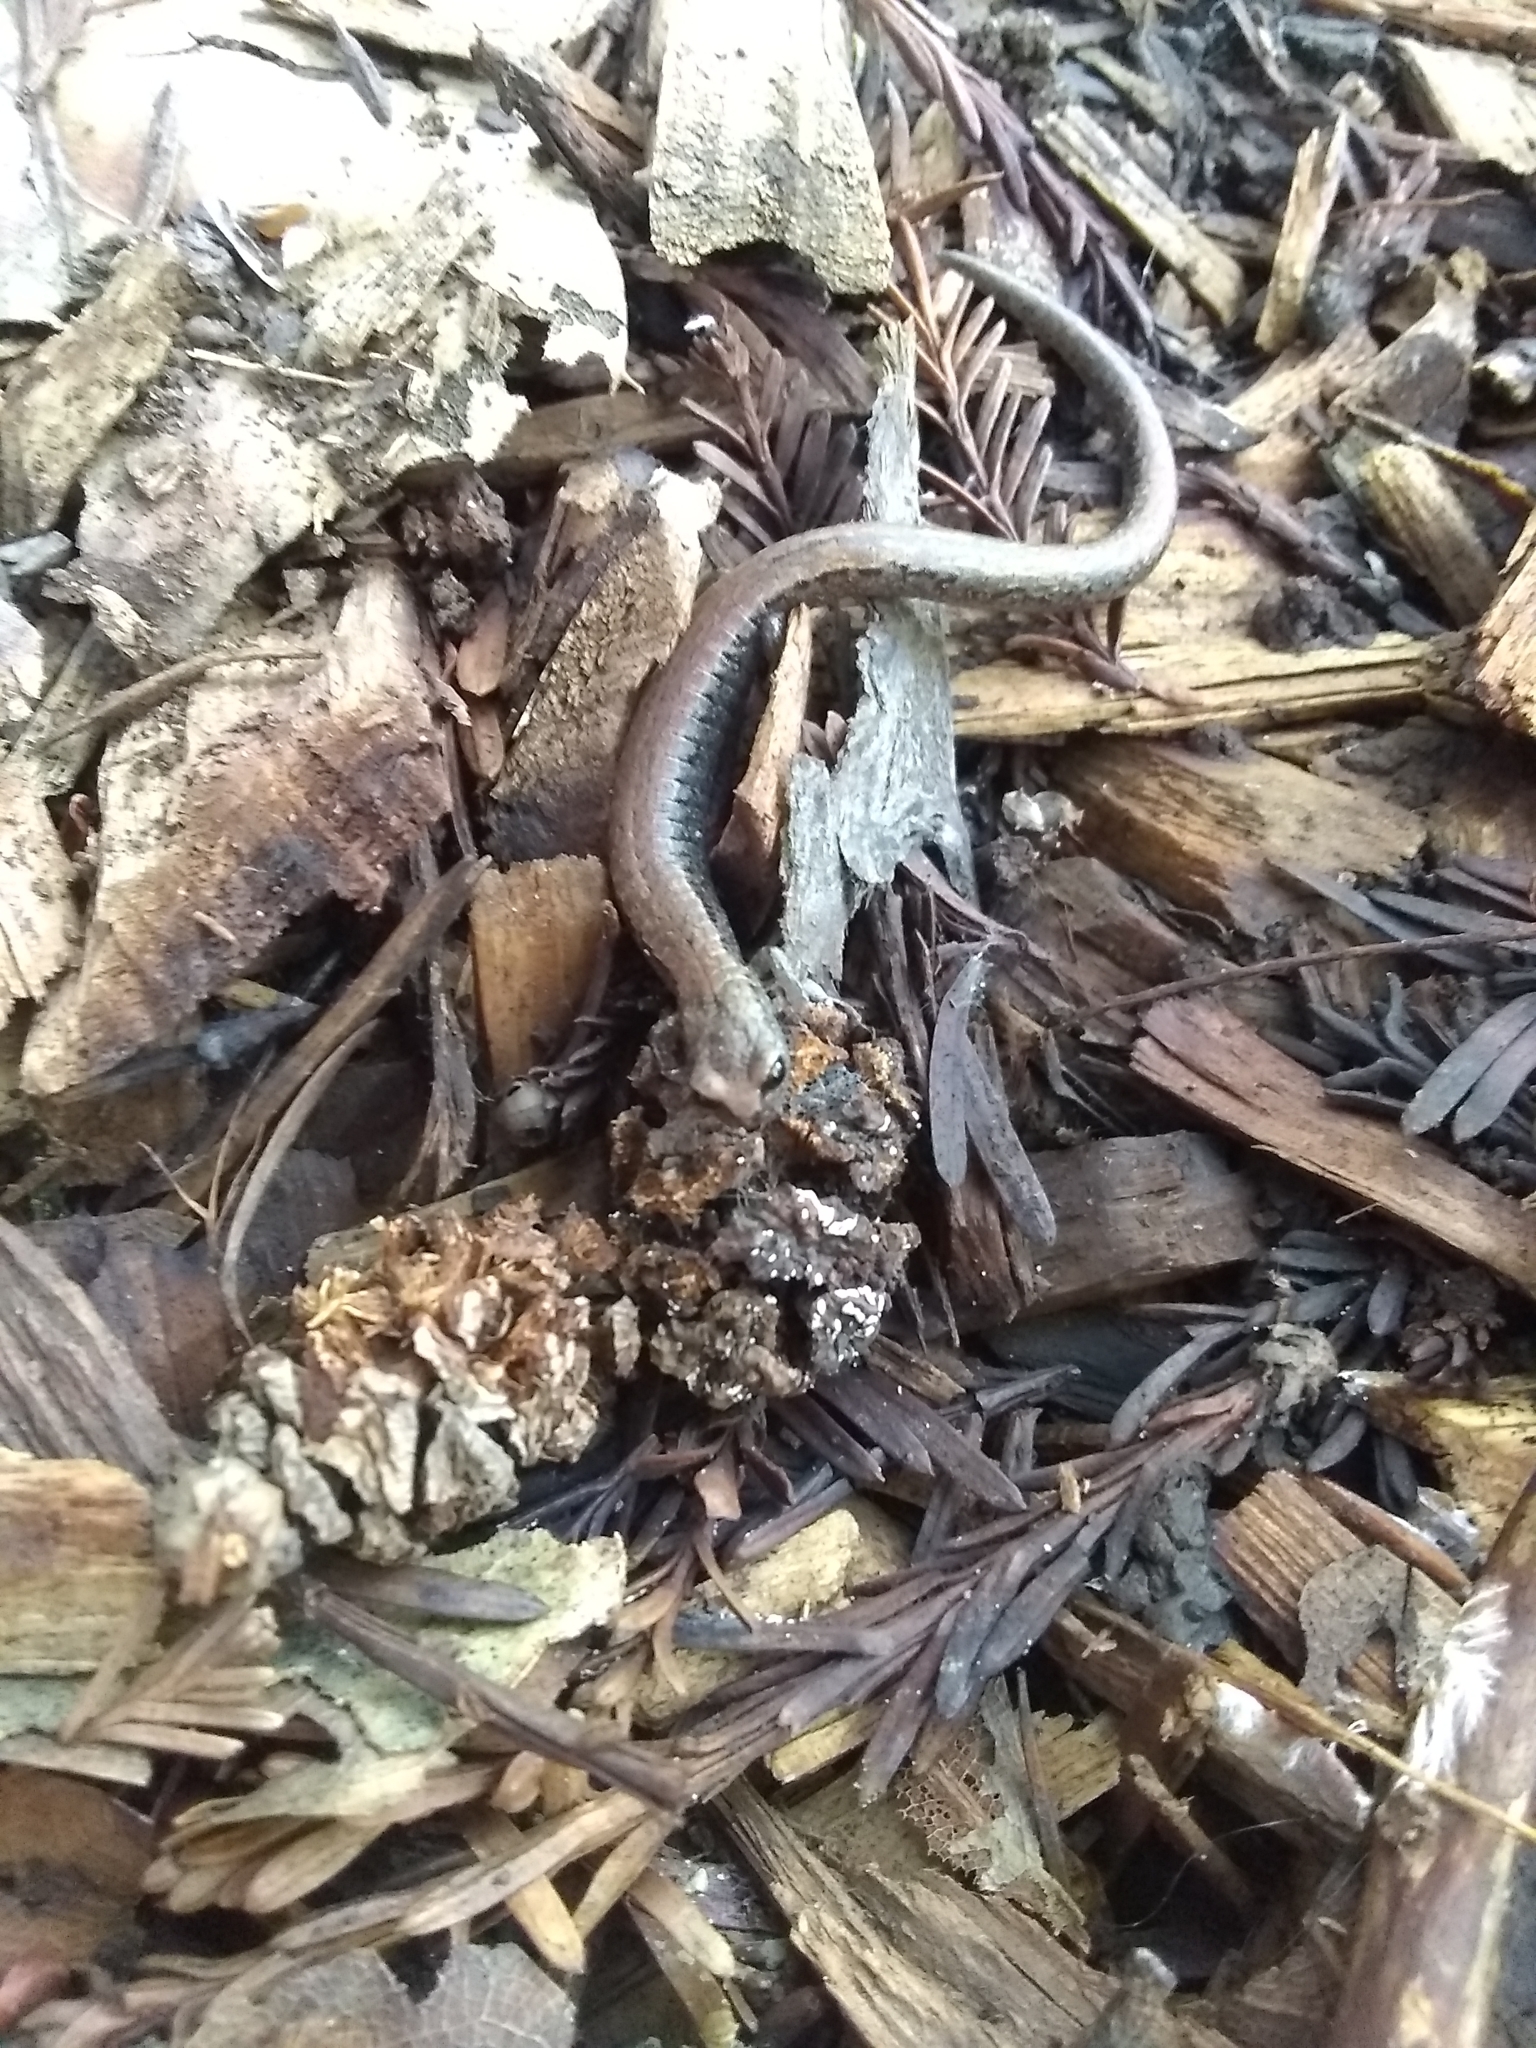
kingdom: Animalia
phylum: Chordata
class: Amphibia
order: Caudata
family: Plethodontidae
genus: Batrachoseps
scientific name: Batrachoseps attenuatus
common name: California slender salamander
